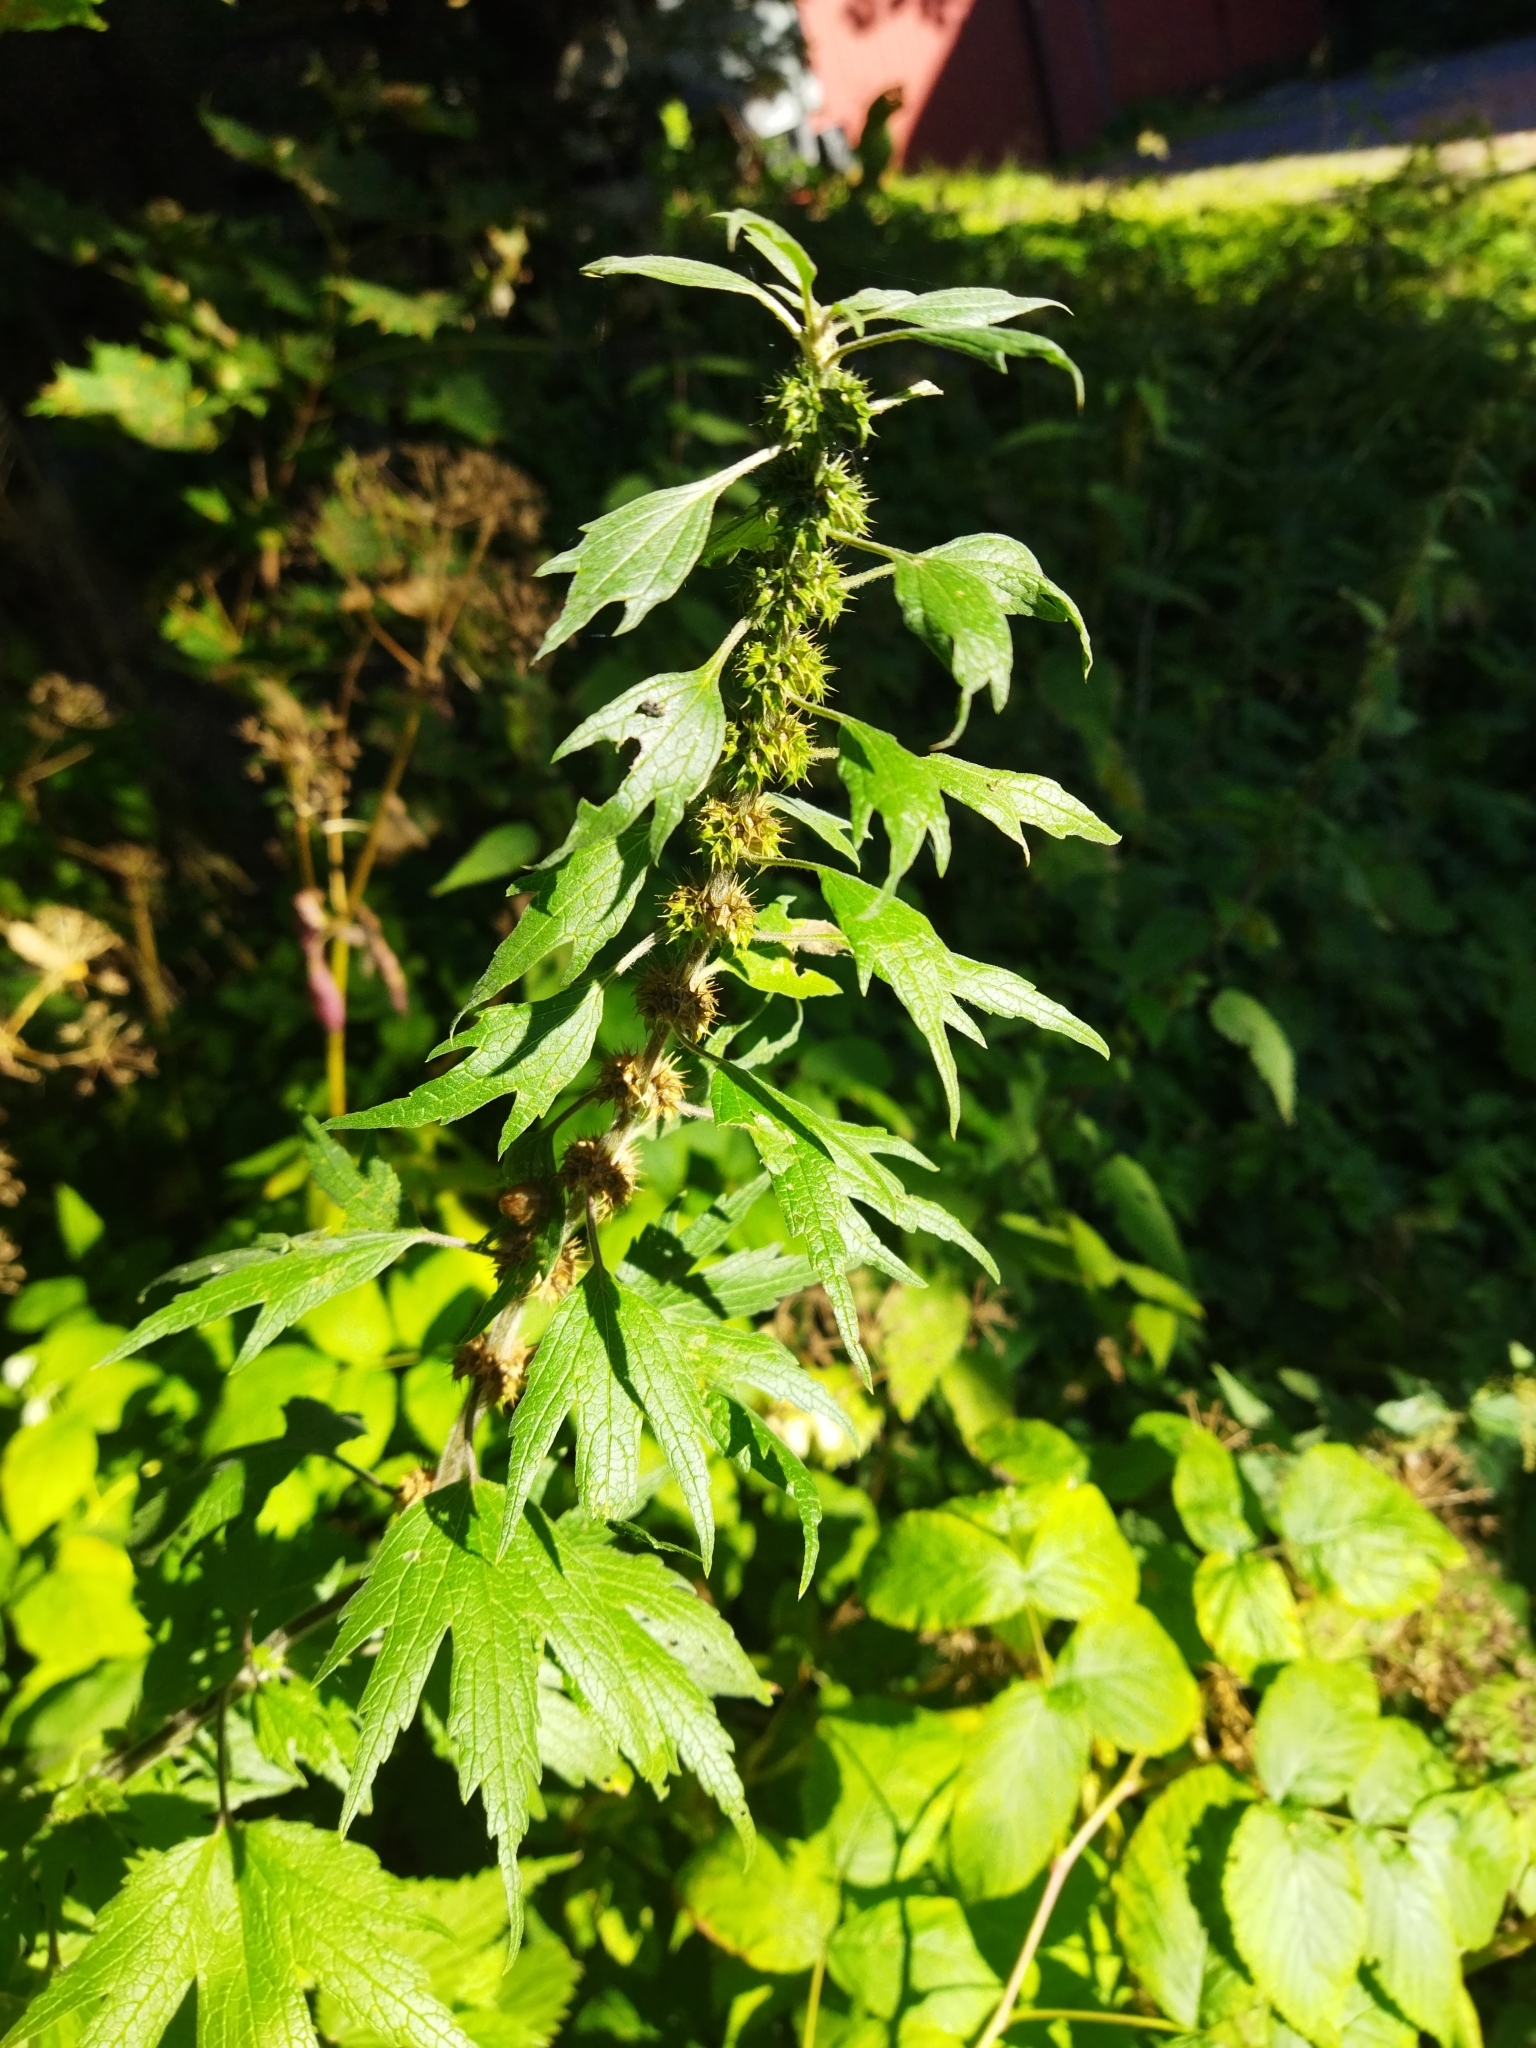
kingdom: Plantae
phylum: Tracheophyta
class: Magnoliopsida
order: Lamiales
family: Lamiaceae
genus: Leonurus
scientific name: Leonurus quinquelobatus
